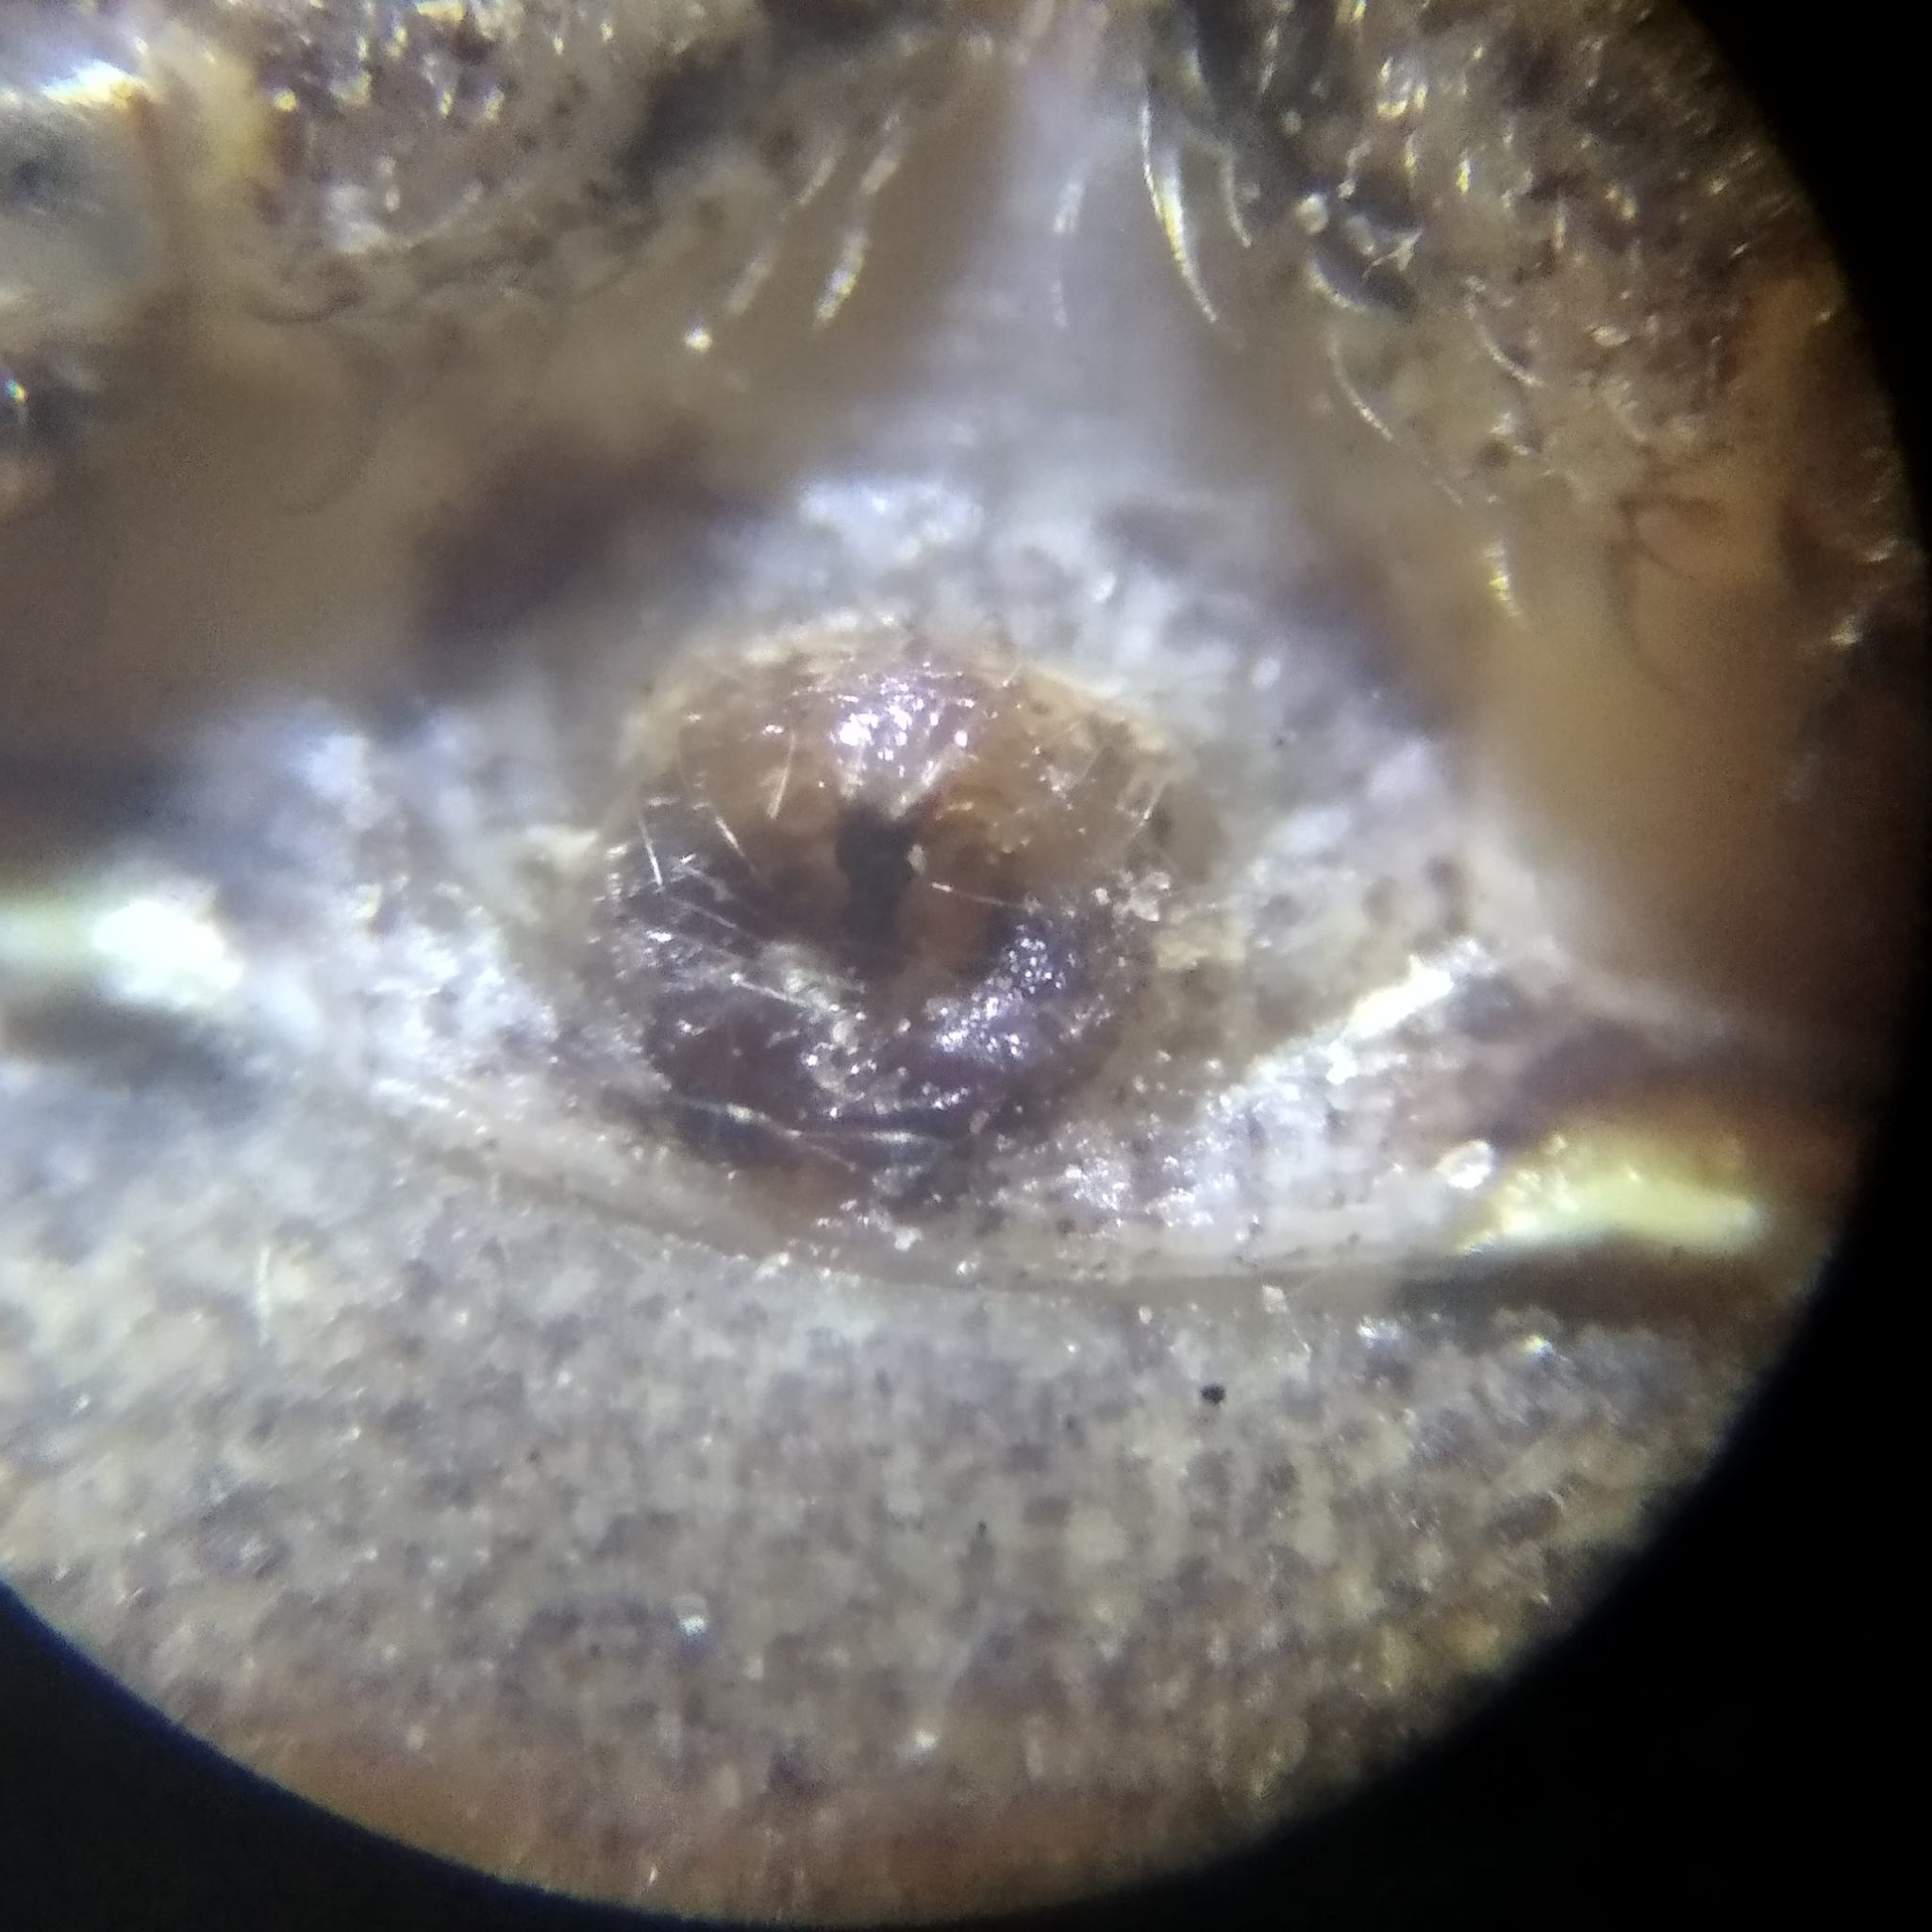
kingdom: Animalia
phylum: Arthropoda
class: Arachnida
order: Araneae
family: Thomisidae
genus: Xysticus
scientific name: Xysticus cristatus
